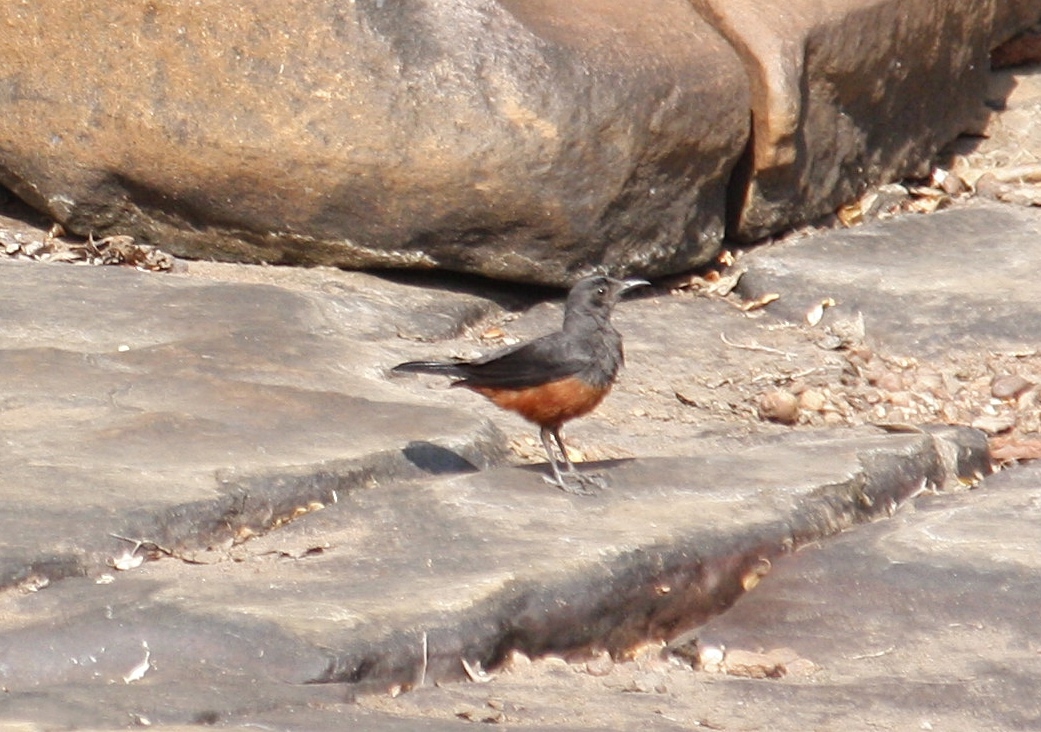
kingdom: Animalia
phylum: Chordata
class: Aves
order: Passeriformes
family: Muscicapidae
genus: Thamnolaea
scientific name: Thamnolaea cinnamomeiventris
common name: Mocking cliff chat
